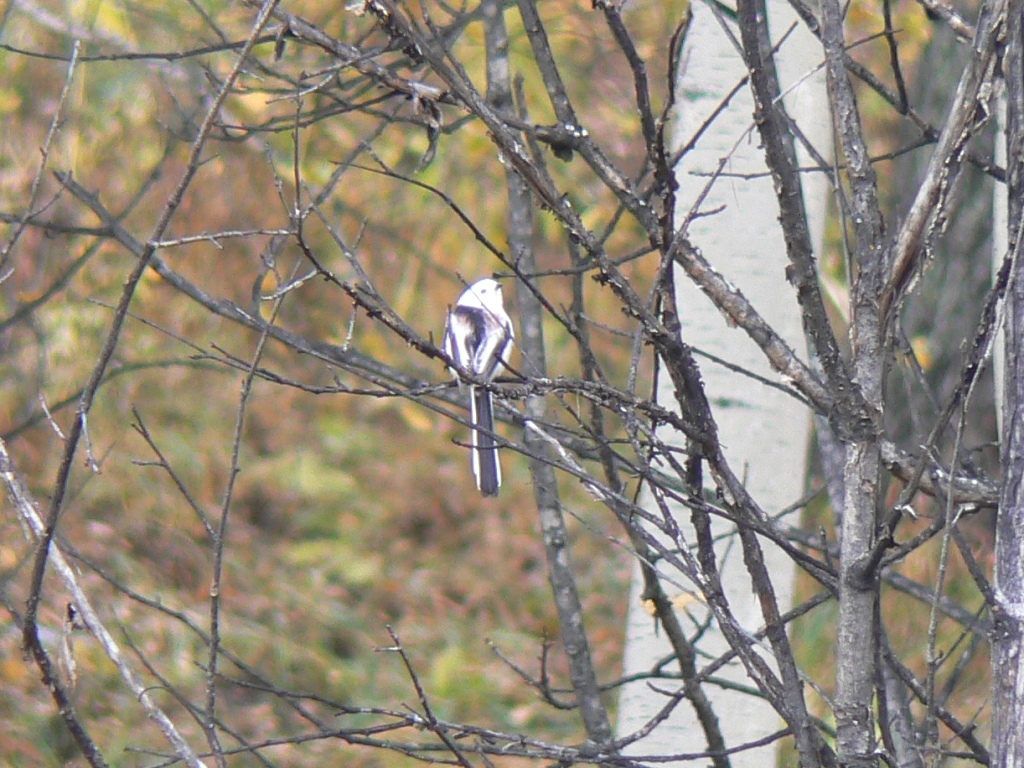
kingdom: Animalia
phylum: Chordata
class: Aves
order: Passeriformes
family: Aegithalidae
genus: Aegithalos
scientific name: Aegithalos caudatus
